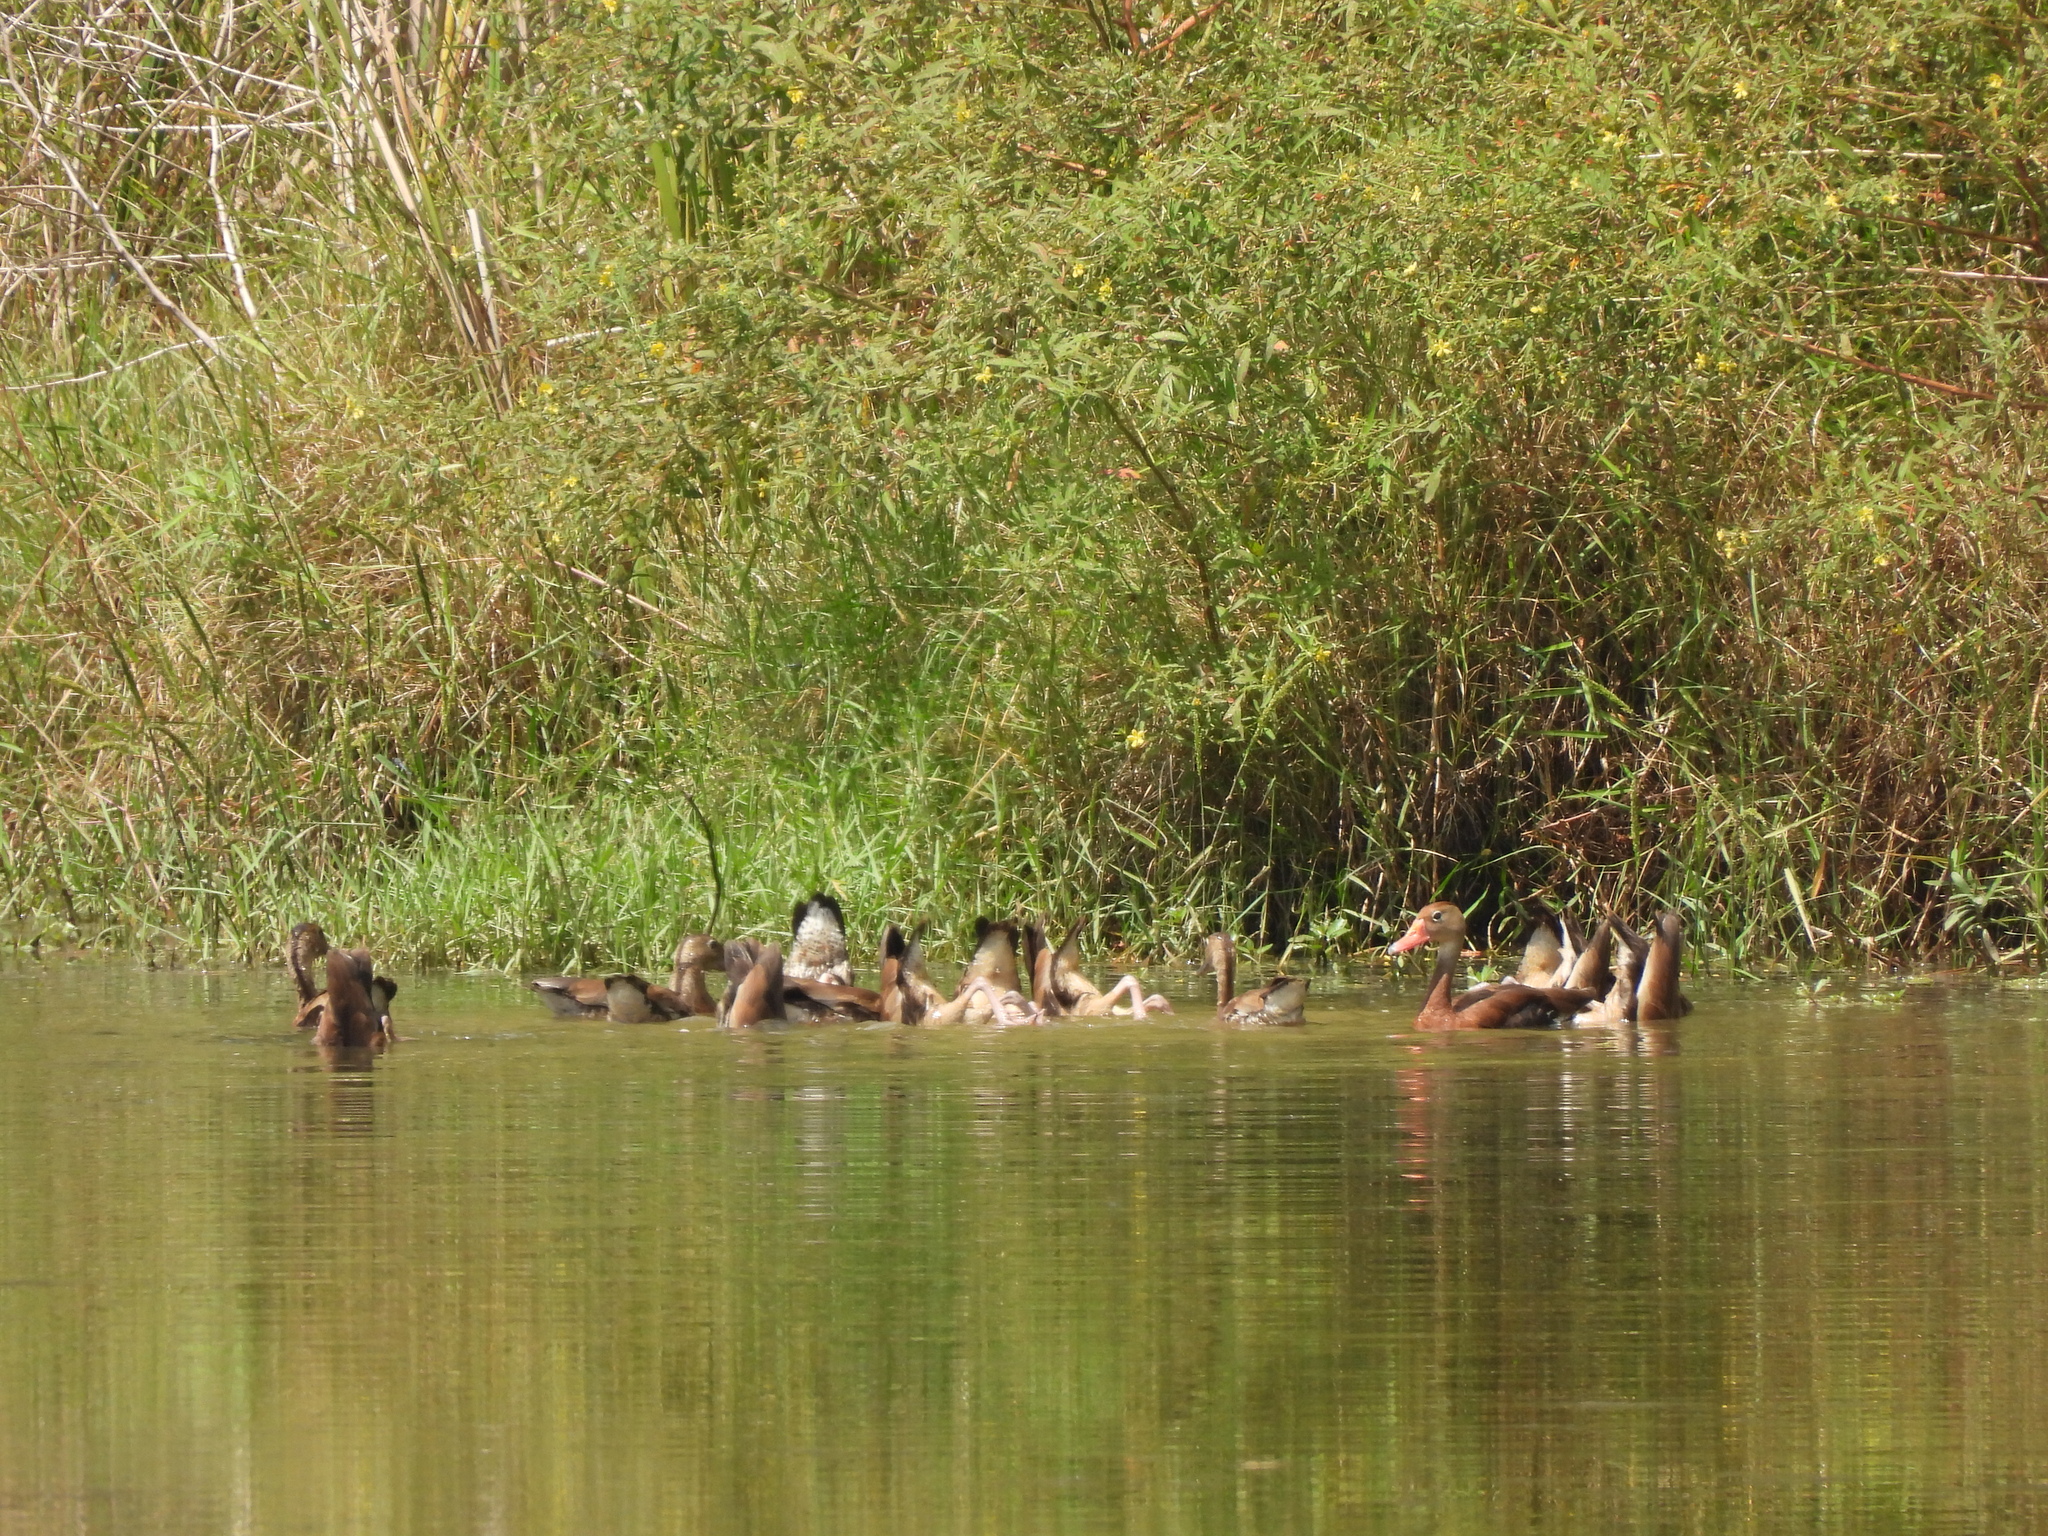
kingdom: Animalia
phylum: Chordata
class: Aves
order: Anseriformes
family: Anatidae
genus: Dendrocygna
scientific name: Dendrocygna autumnalis
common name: Black-bellied whistling duck
